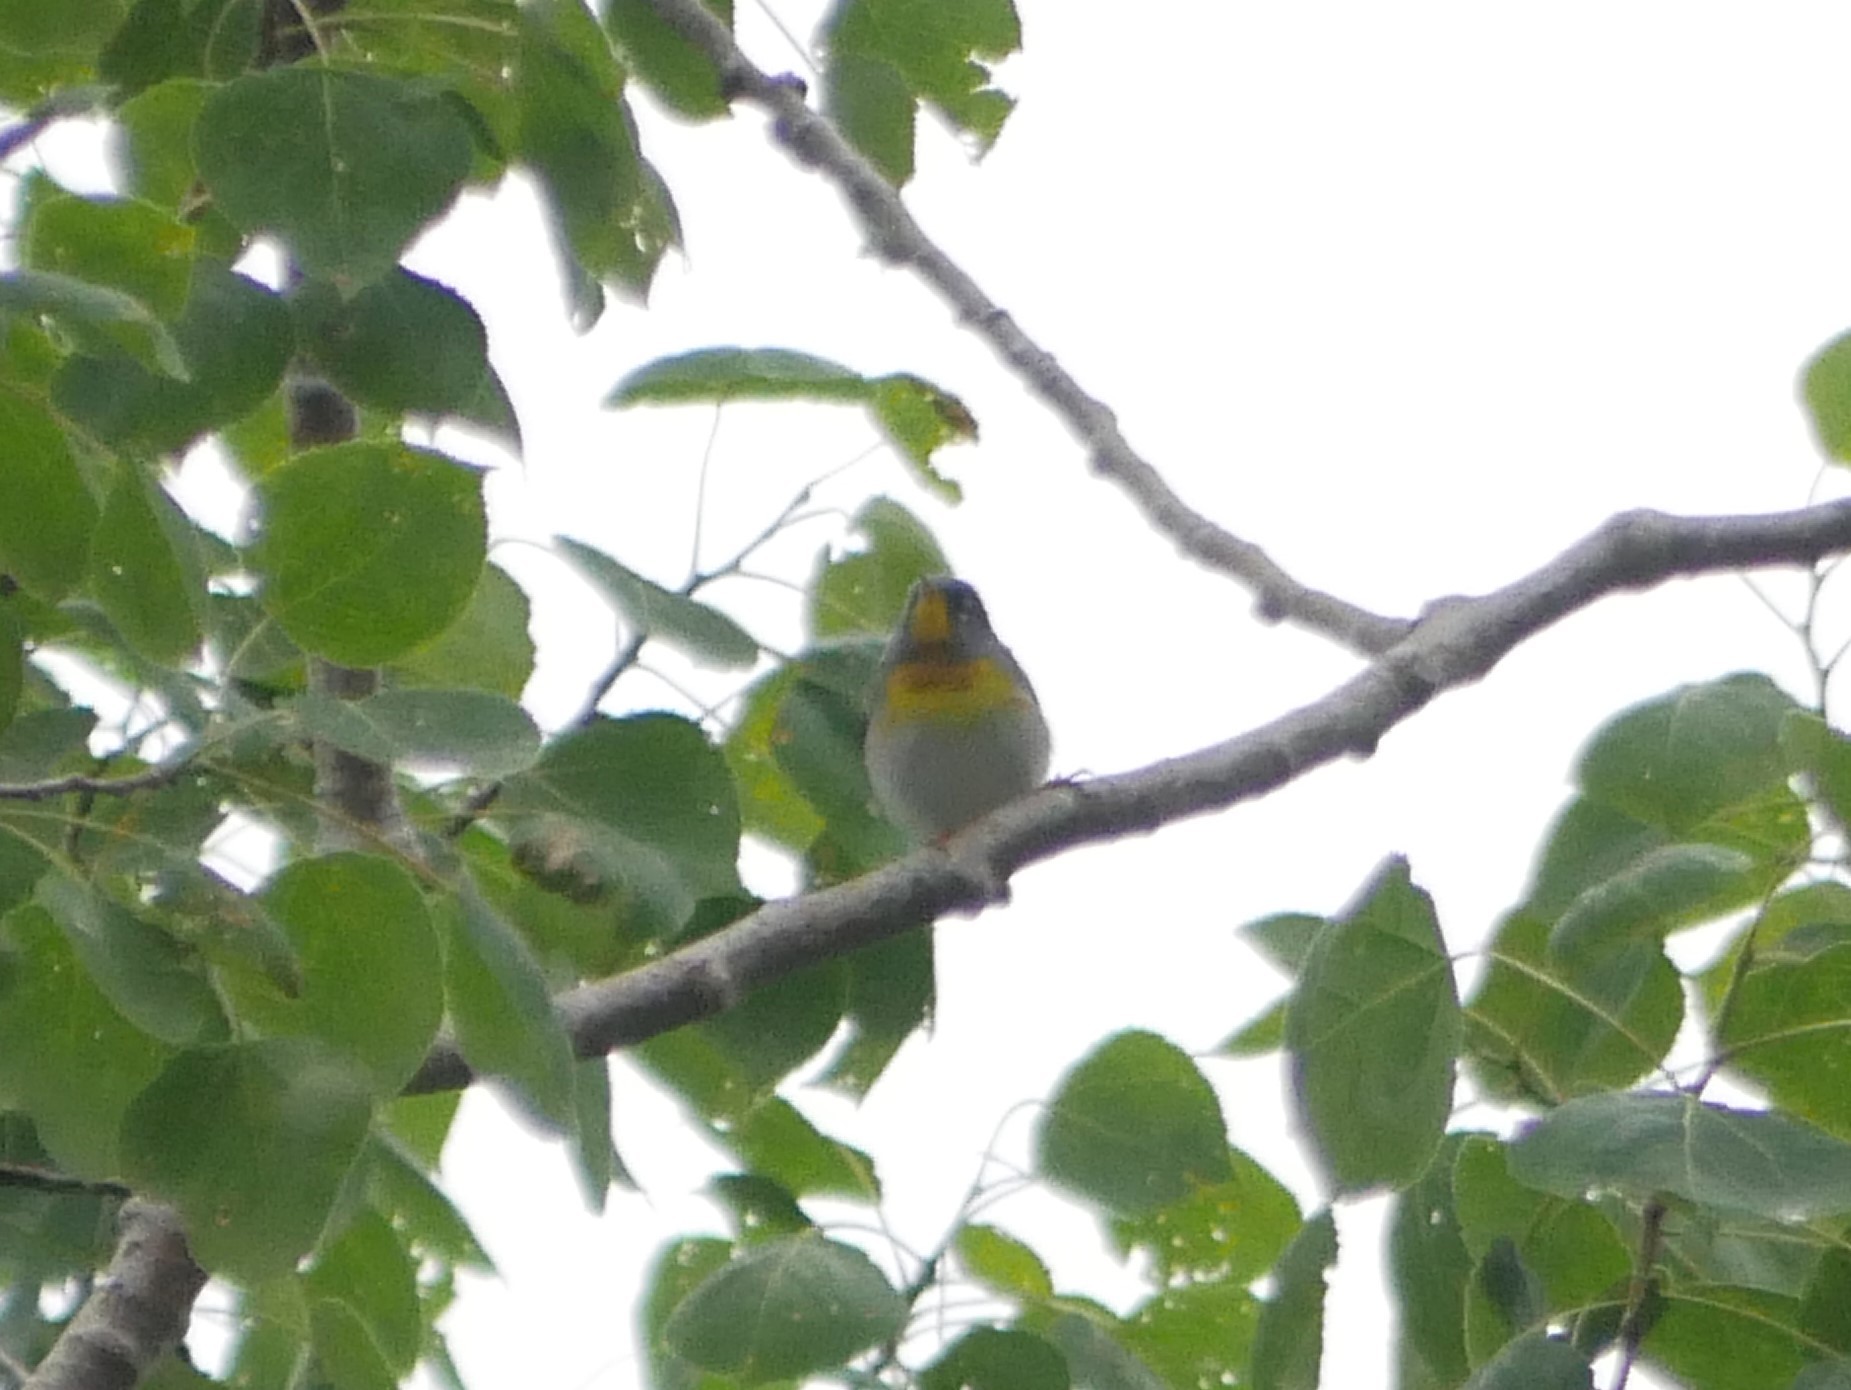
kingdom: Animalia
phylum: Chordata
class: Aves
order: Passeriformes
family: Parulidae
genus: Setophaga
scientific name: Setophaga americana
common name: Northern parula
